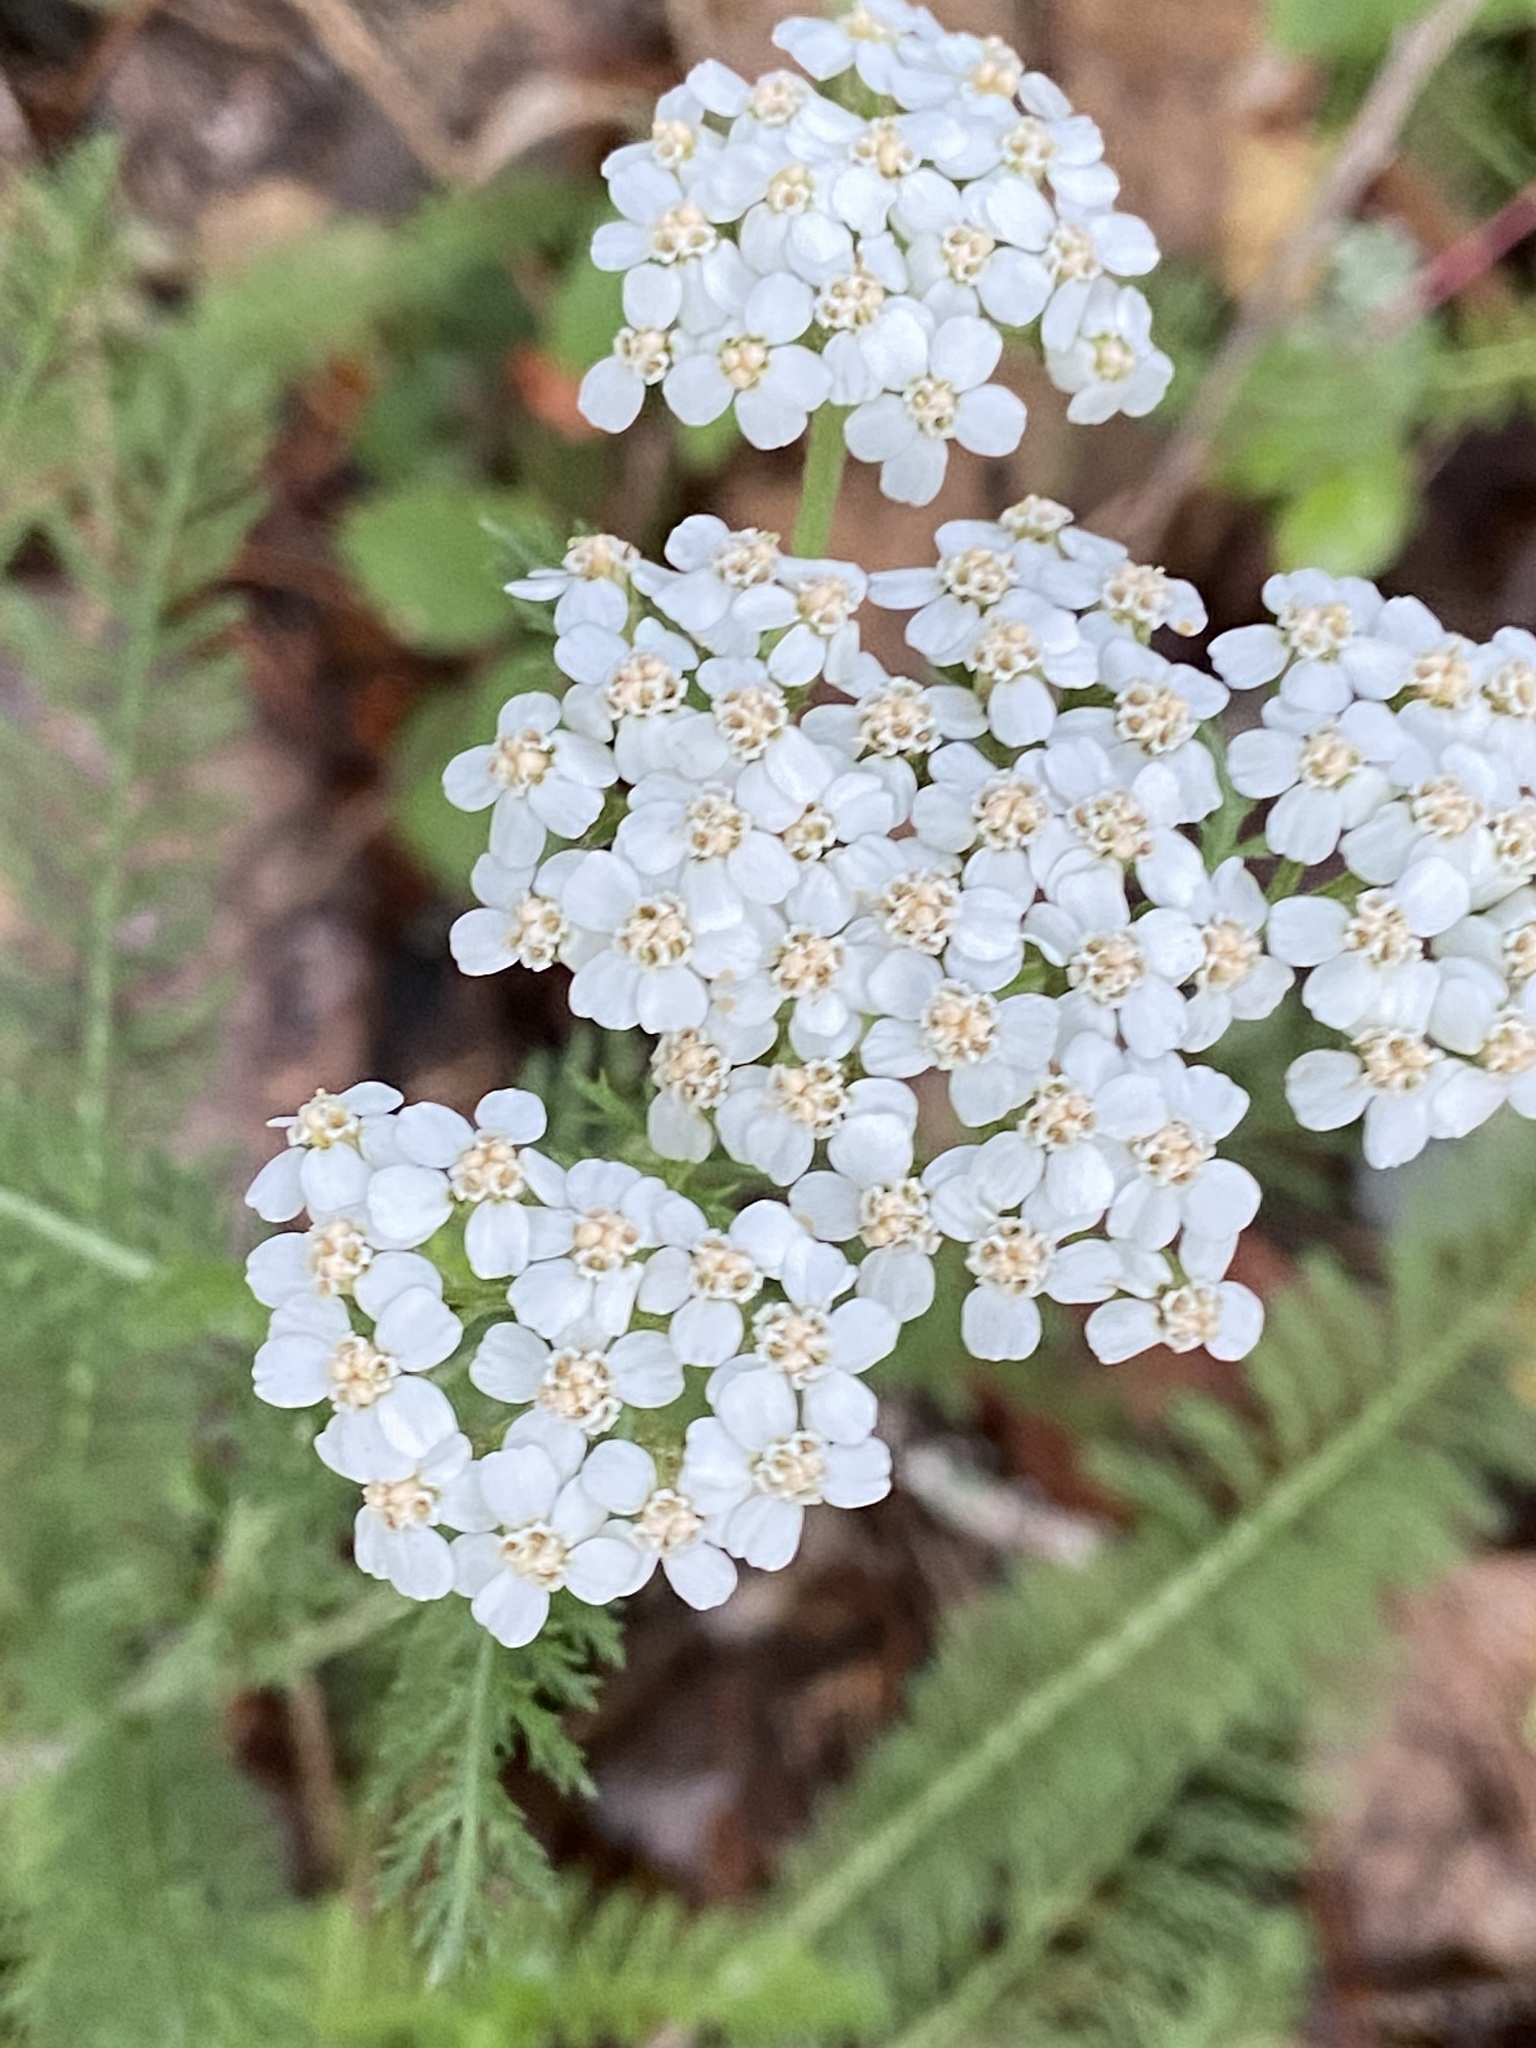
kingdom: Plantae
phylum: Tracheophyta
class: Magnoliopsida
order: Asterales
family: Asteraceae
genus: Achillea
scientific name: Achillea millefolium
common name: Yarrow
